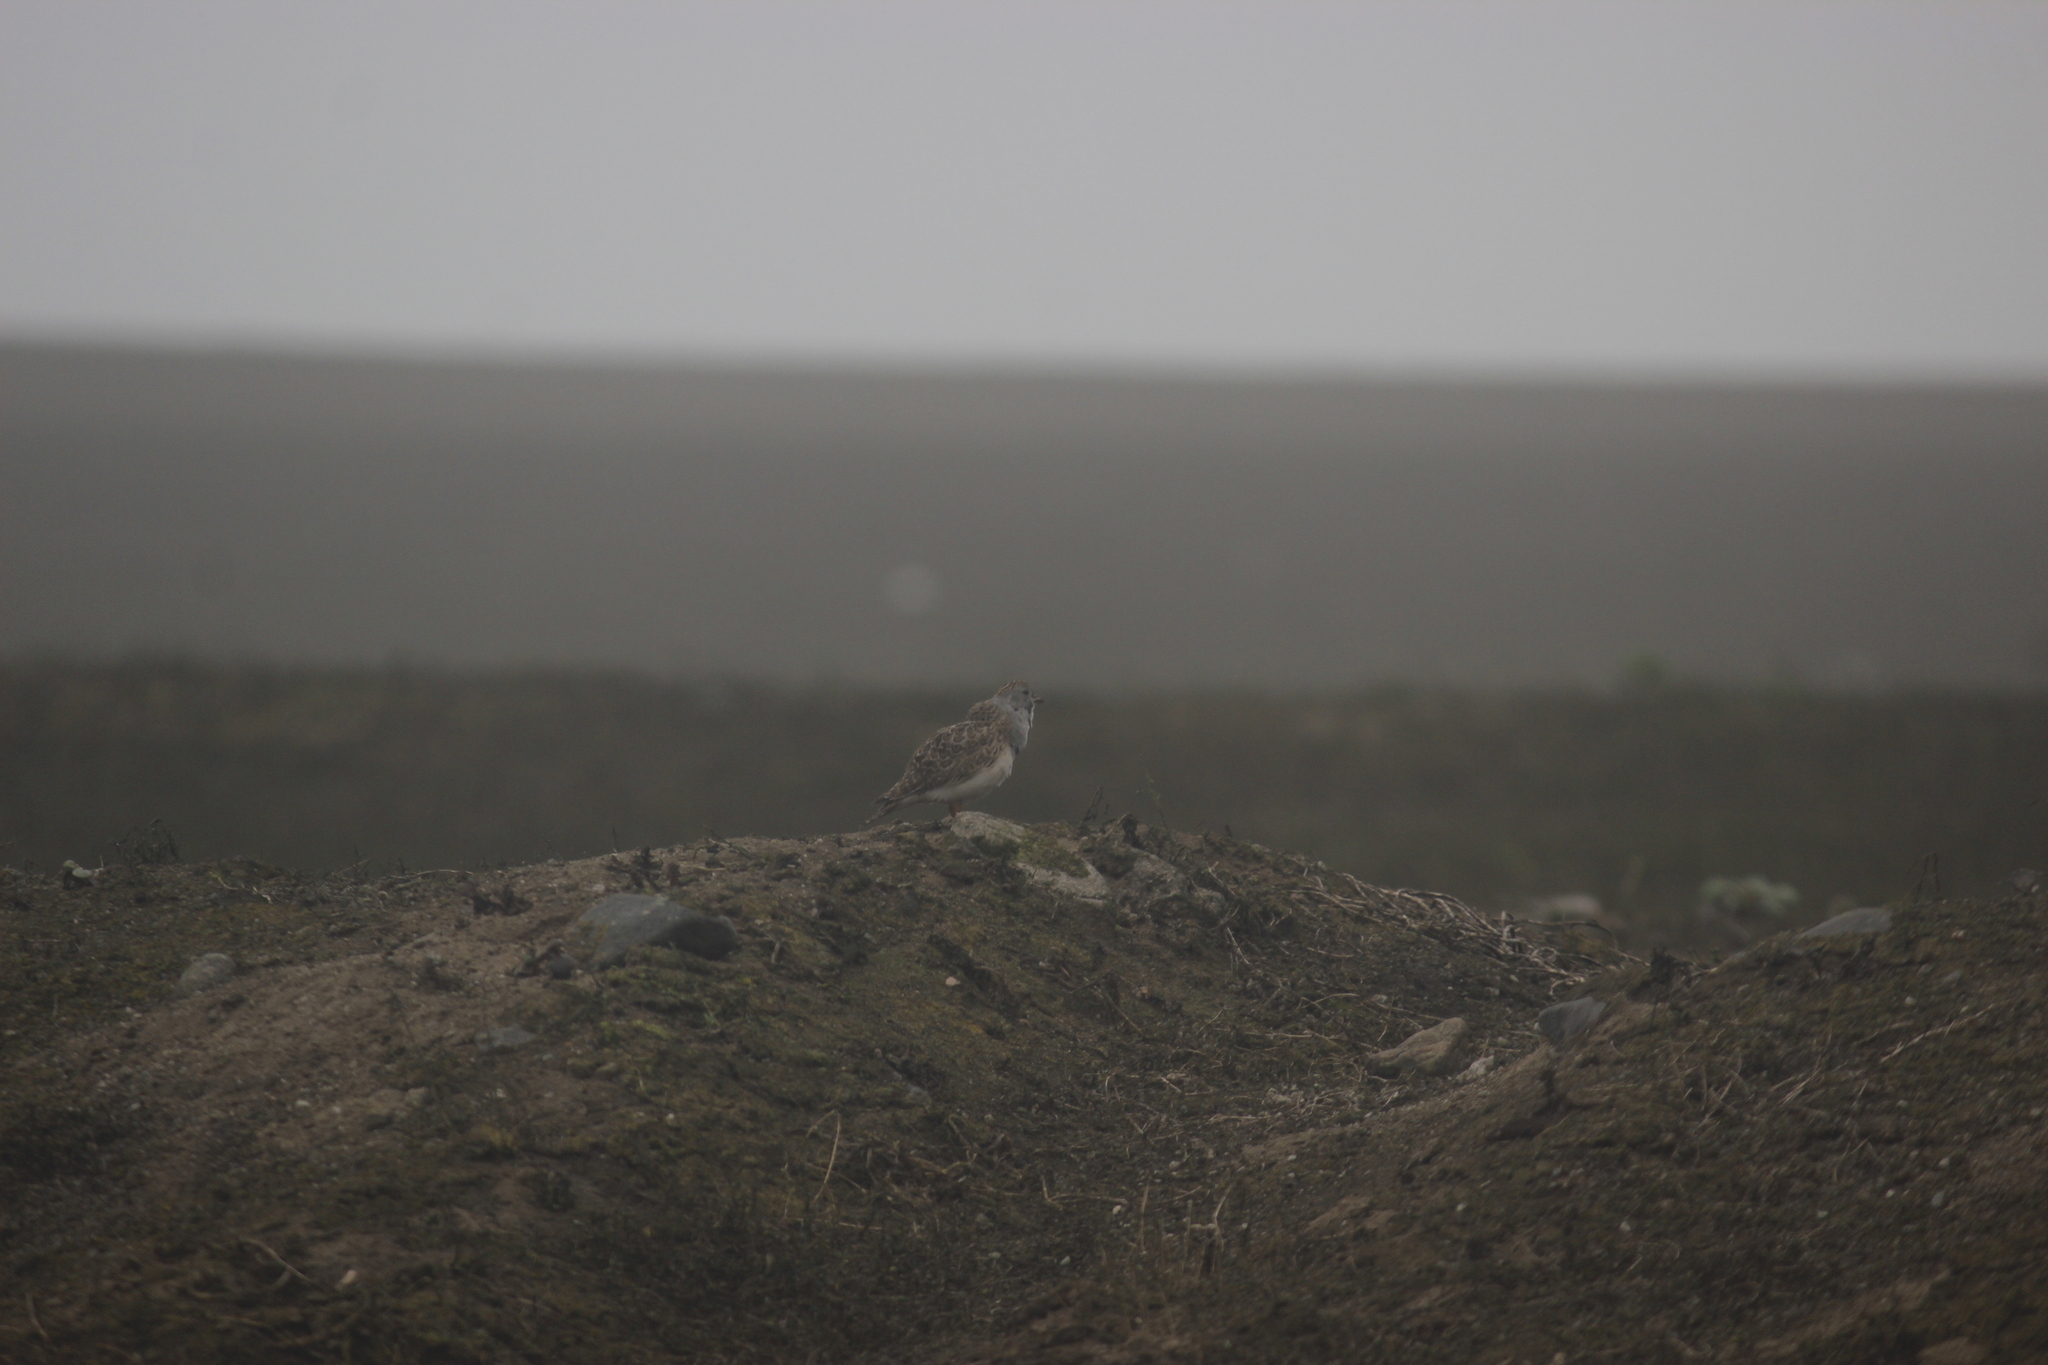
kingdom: Animalia
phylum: Chordata
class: Aves
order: Charadriiformes
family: Thinocoridae
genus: Thinocorus
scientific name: Thinocorus rumicivorus
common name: Least seedsnipe
